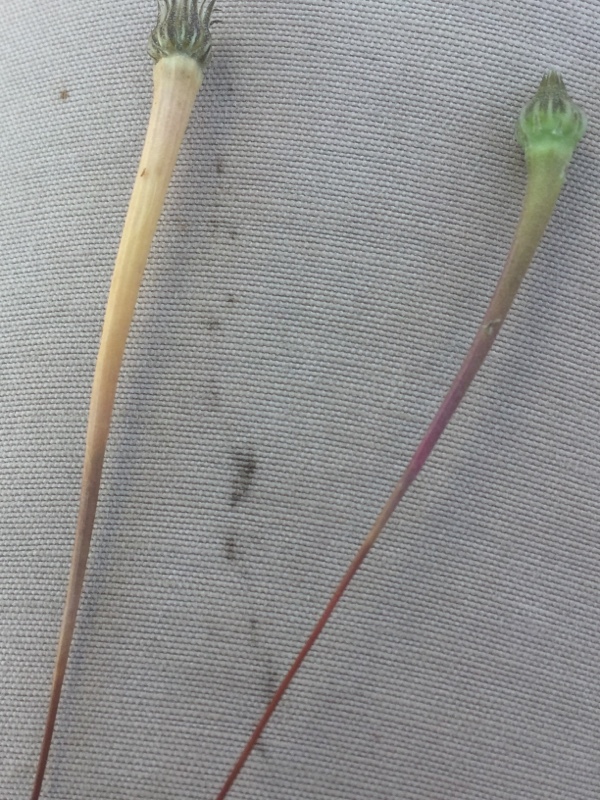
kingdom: Plantae
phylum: Tracheophyta
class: Magnoliopsida
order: Asterales
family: Asteraceae
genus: Arnoseris
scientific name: Arnoseris minima
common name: Lamb's succory
